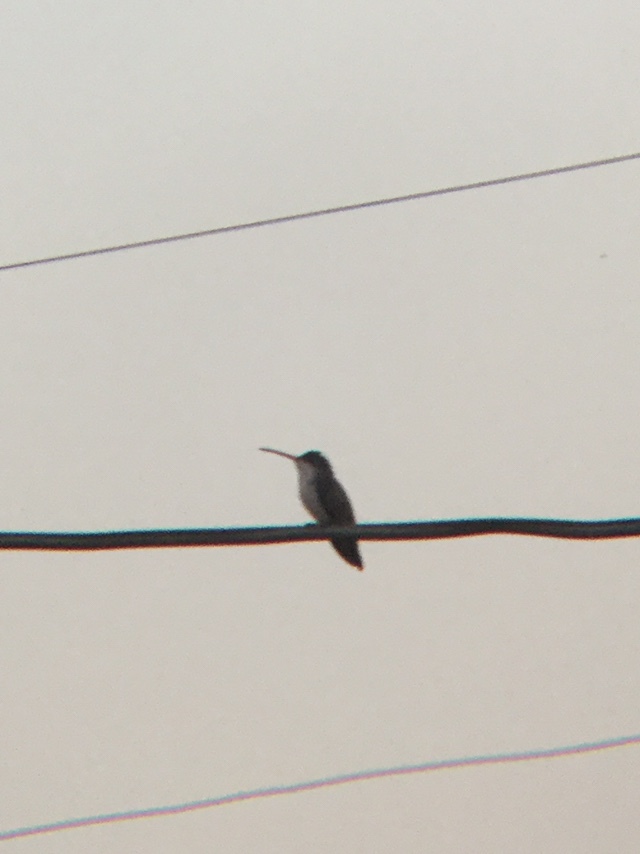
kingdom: Animalia
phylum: Chordata
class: Aves
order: Apodiformes
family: Trochilidae
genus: Leucolia
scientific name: Leucolia violiceps
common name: Violet-crowned hummingbird
